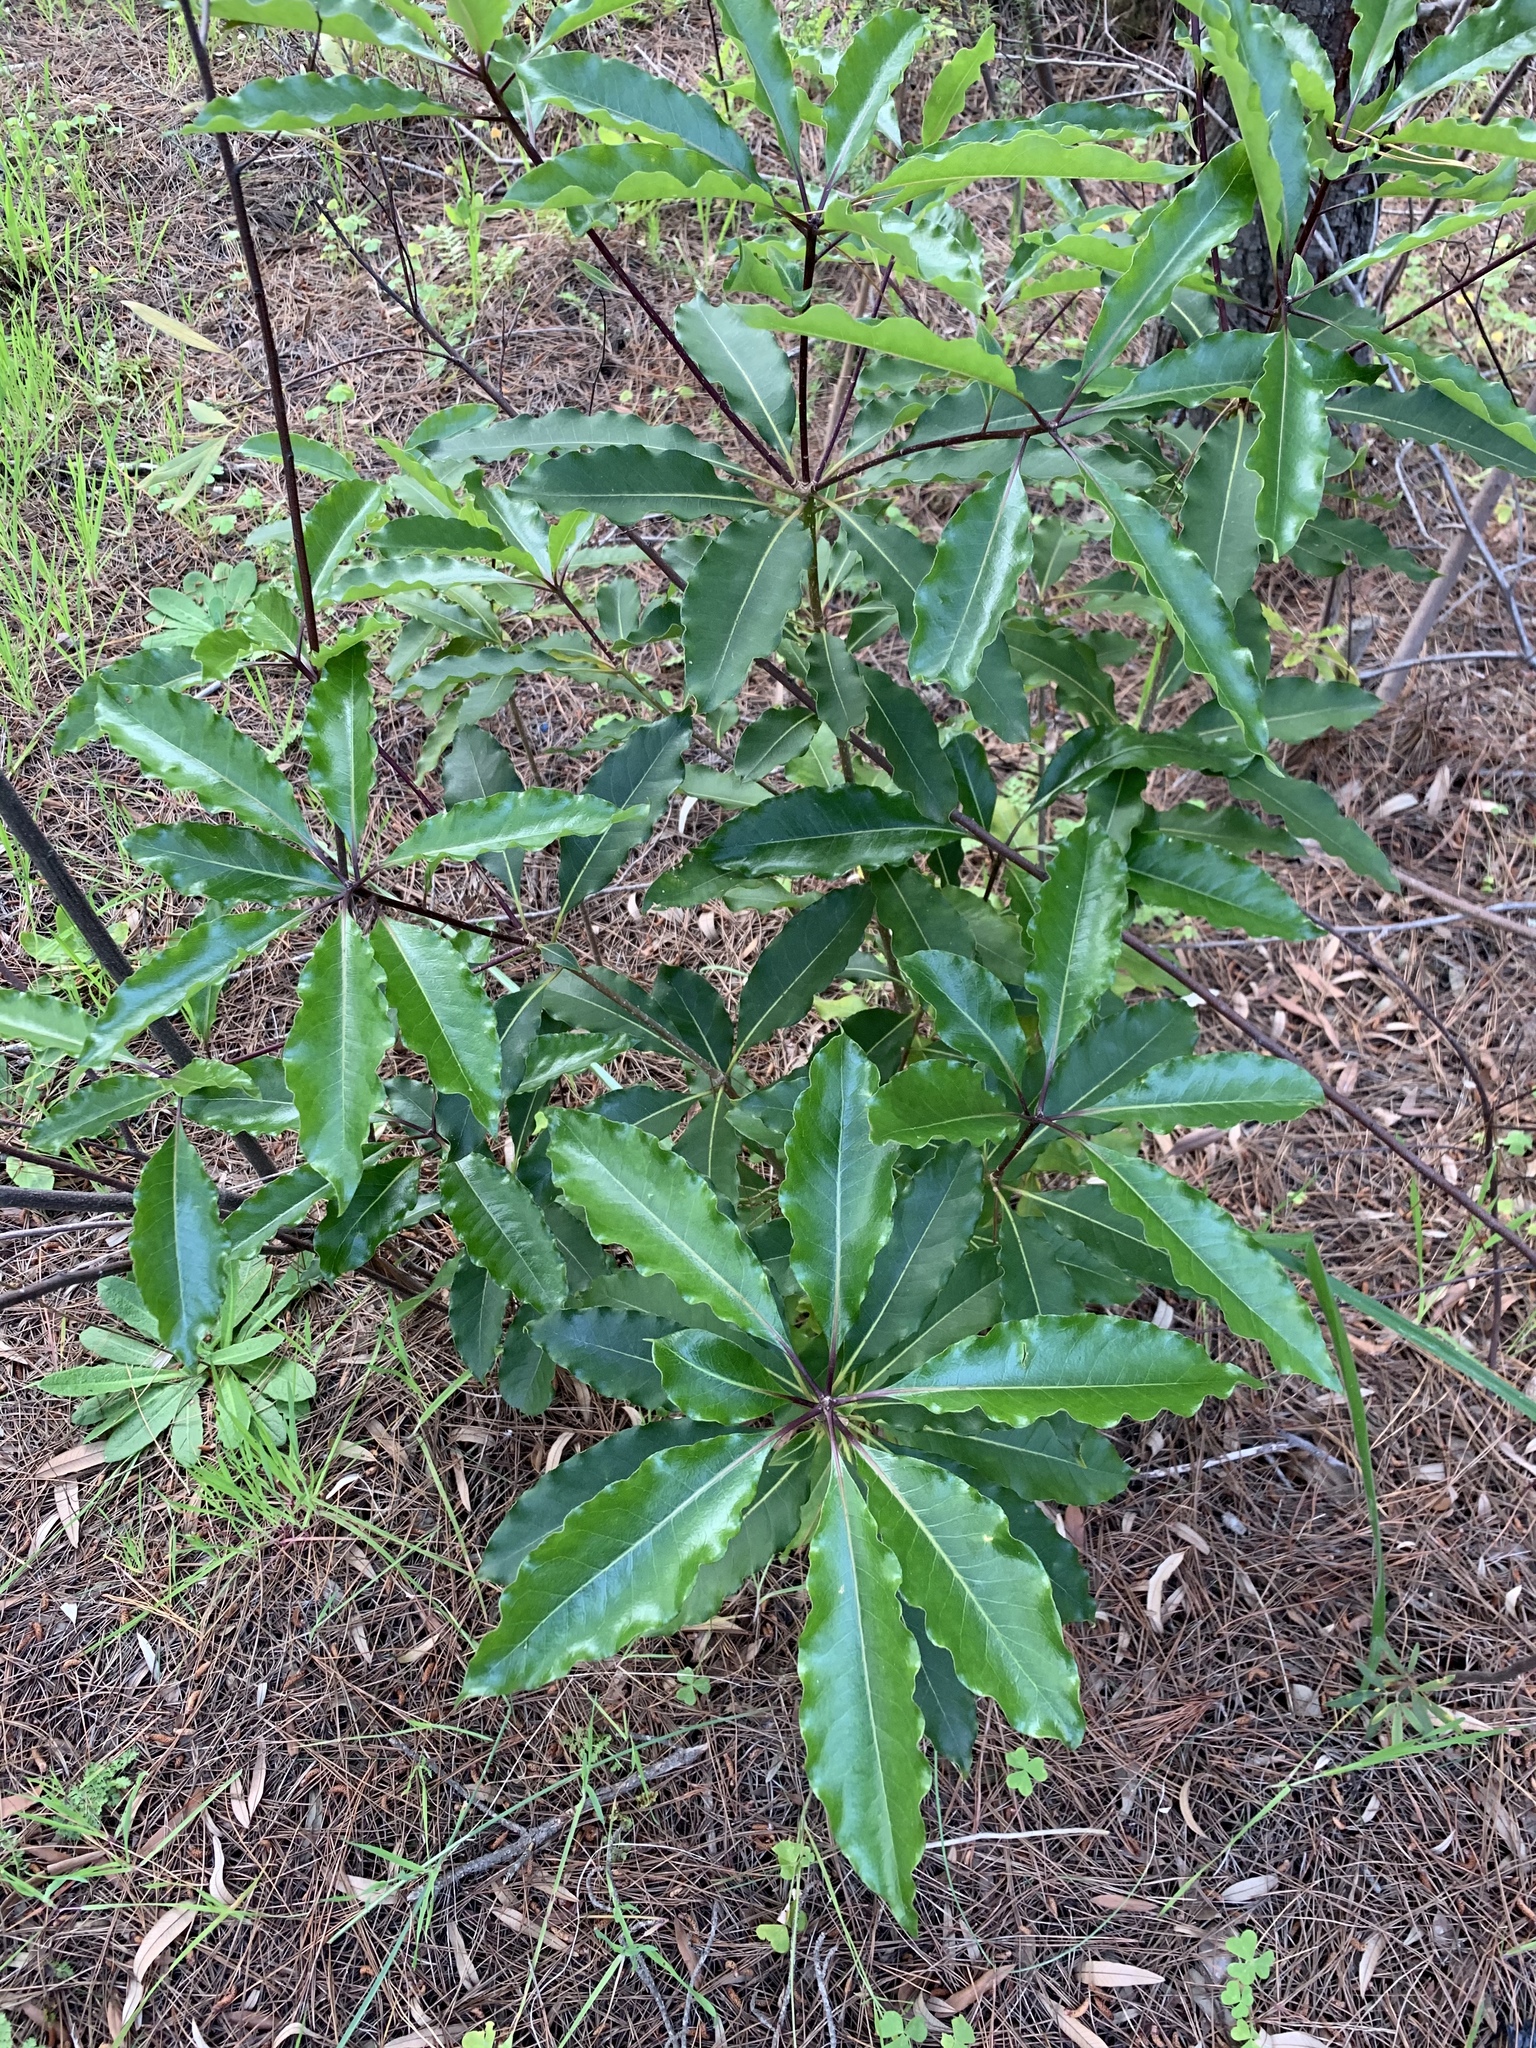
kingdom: Plantae
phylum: Tracheophyta
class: Magnoliopsida
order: Apiales
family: Pittosporaceae
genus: Pittosporum
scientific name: Pittosporum undulatum
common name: Australian cheesewood
